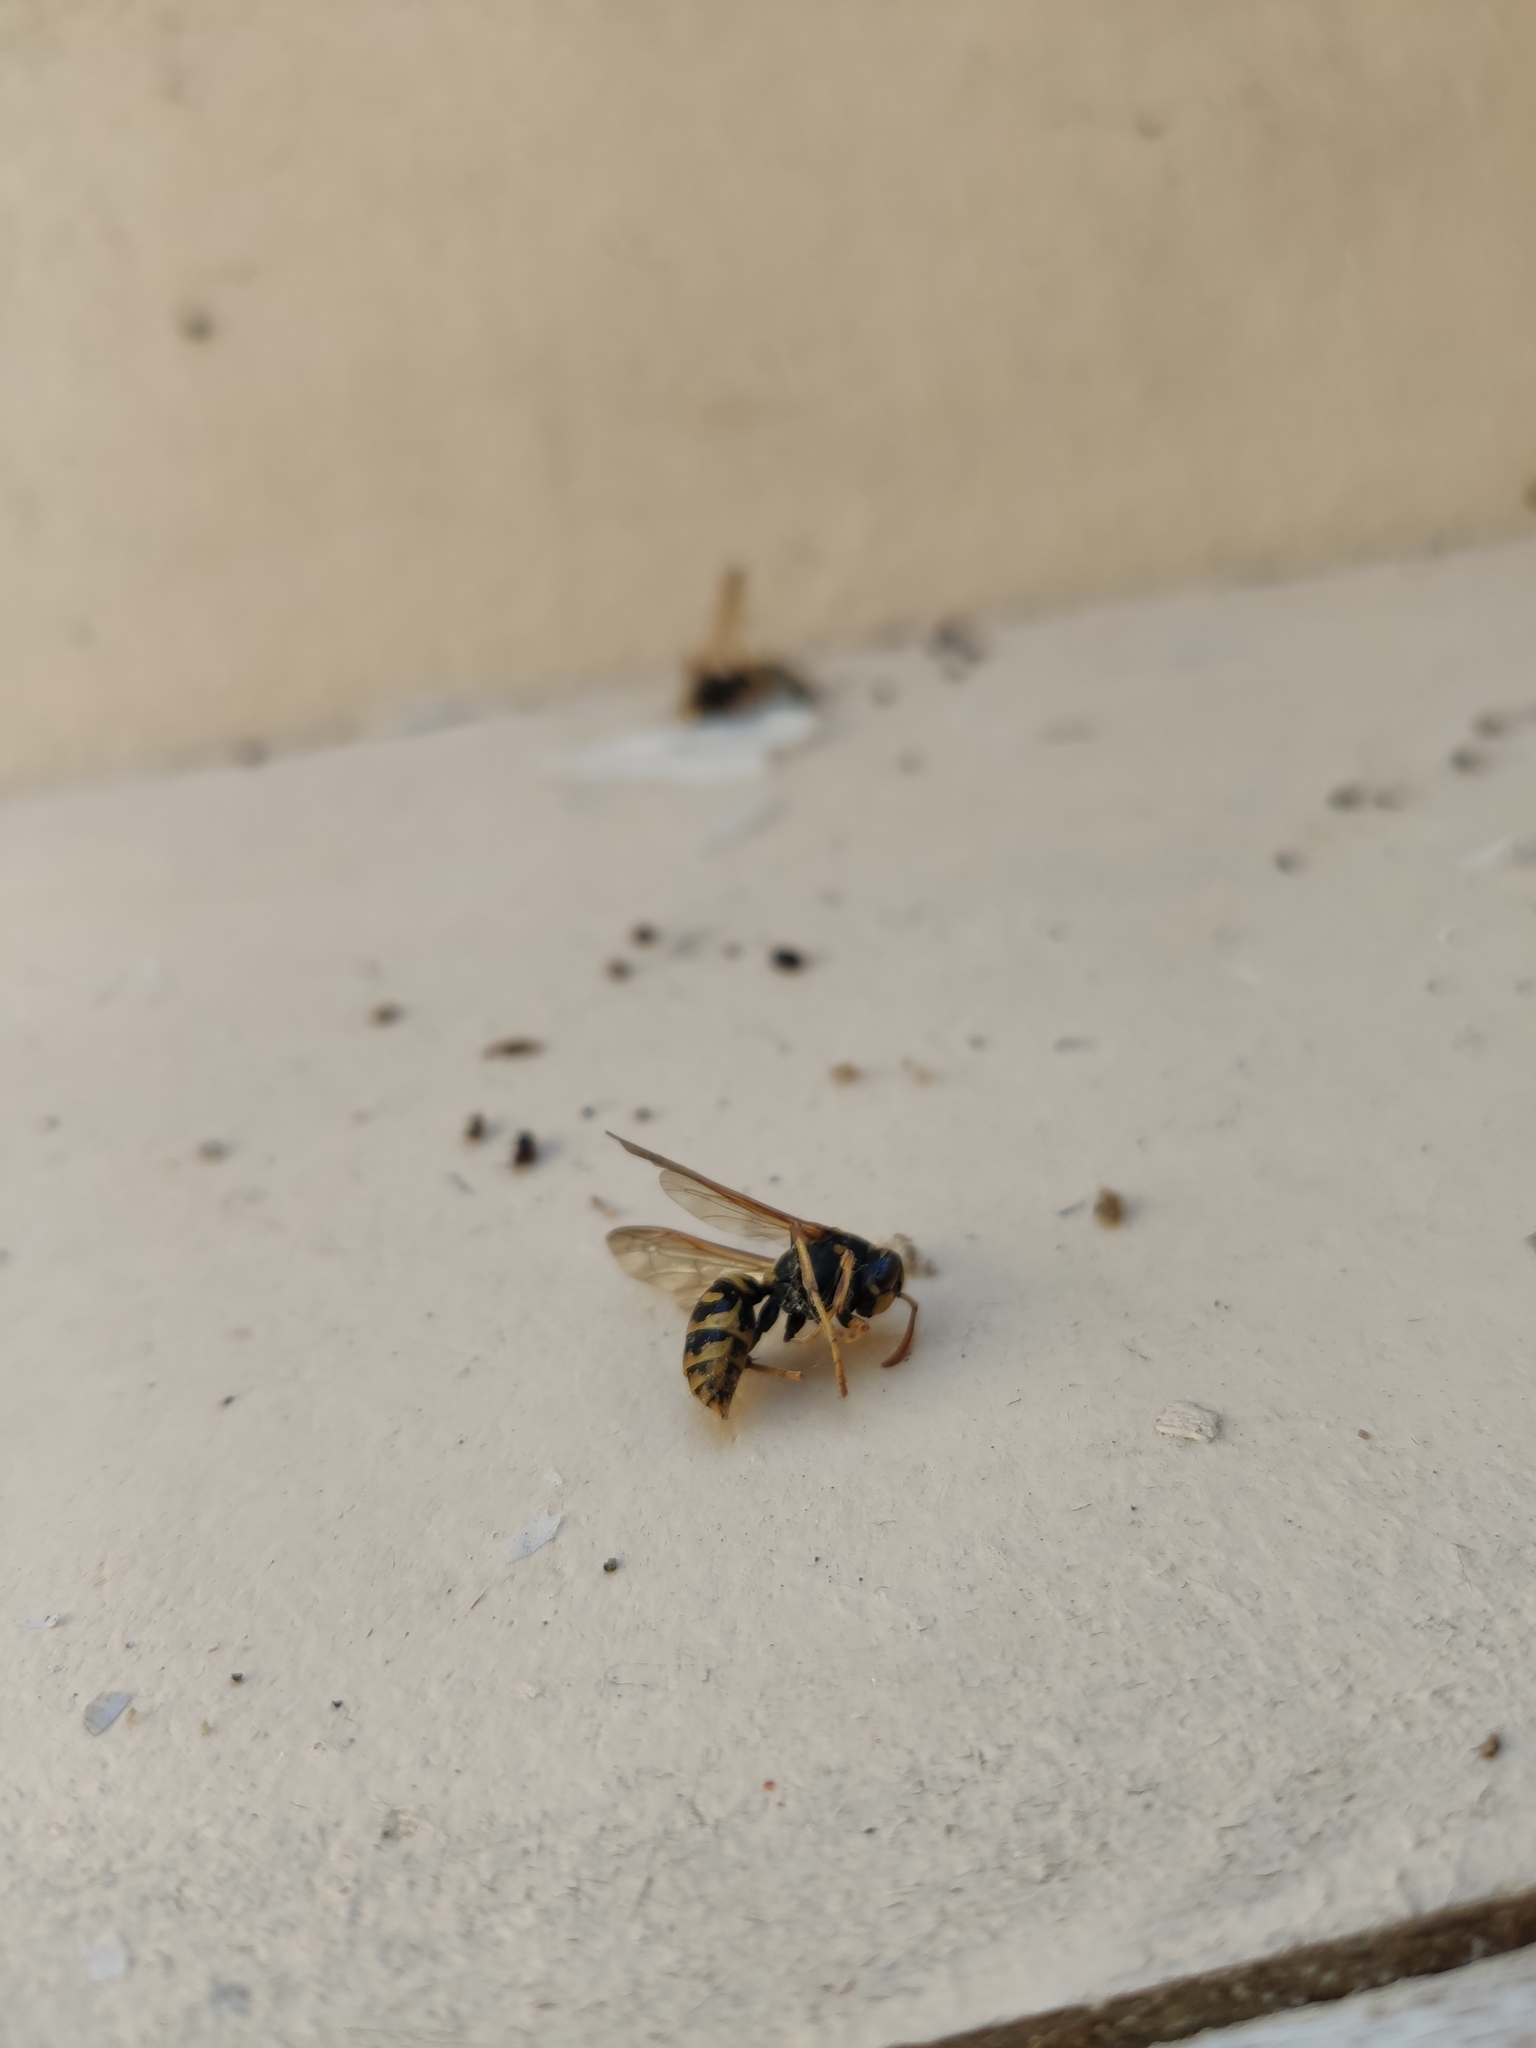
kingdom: Animalia
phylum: Arthropoda
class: Insecta
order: Hymenoptera
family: Eumenidae
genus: Polistes
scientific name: Polistes dominula
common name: Paper wasp
